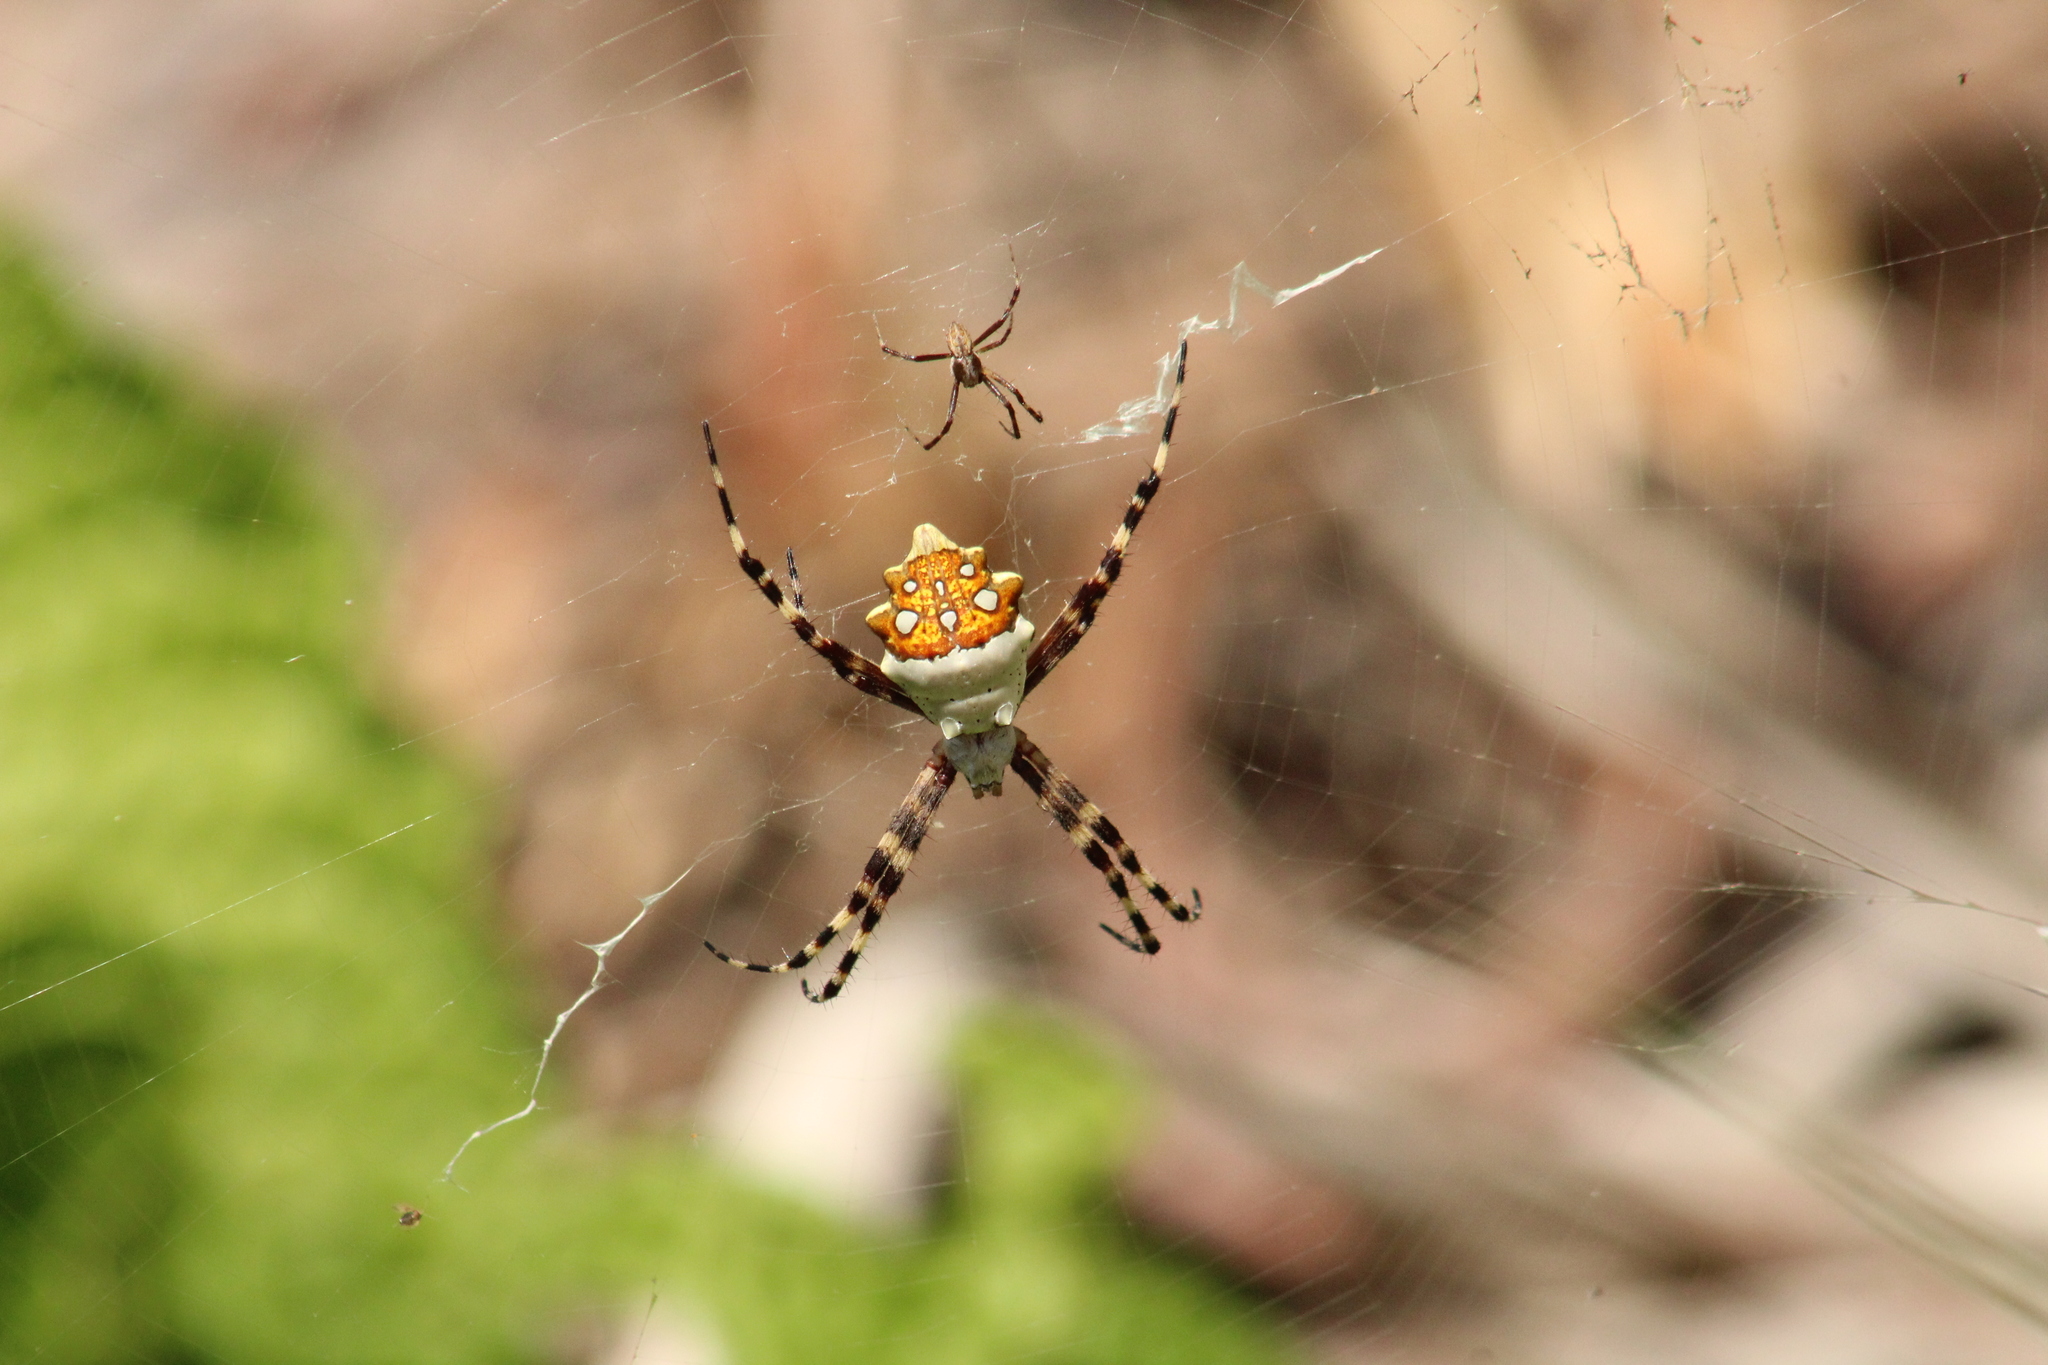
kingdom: Animalia
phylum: Arthropoda
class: Arachnida
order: Araneae
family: Araneidae
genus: Argiope
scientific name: Argiope argentata
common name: Orb weavers
